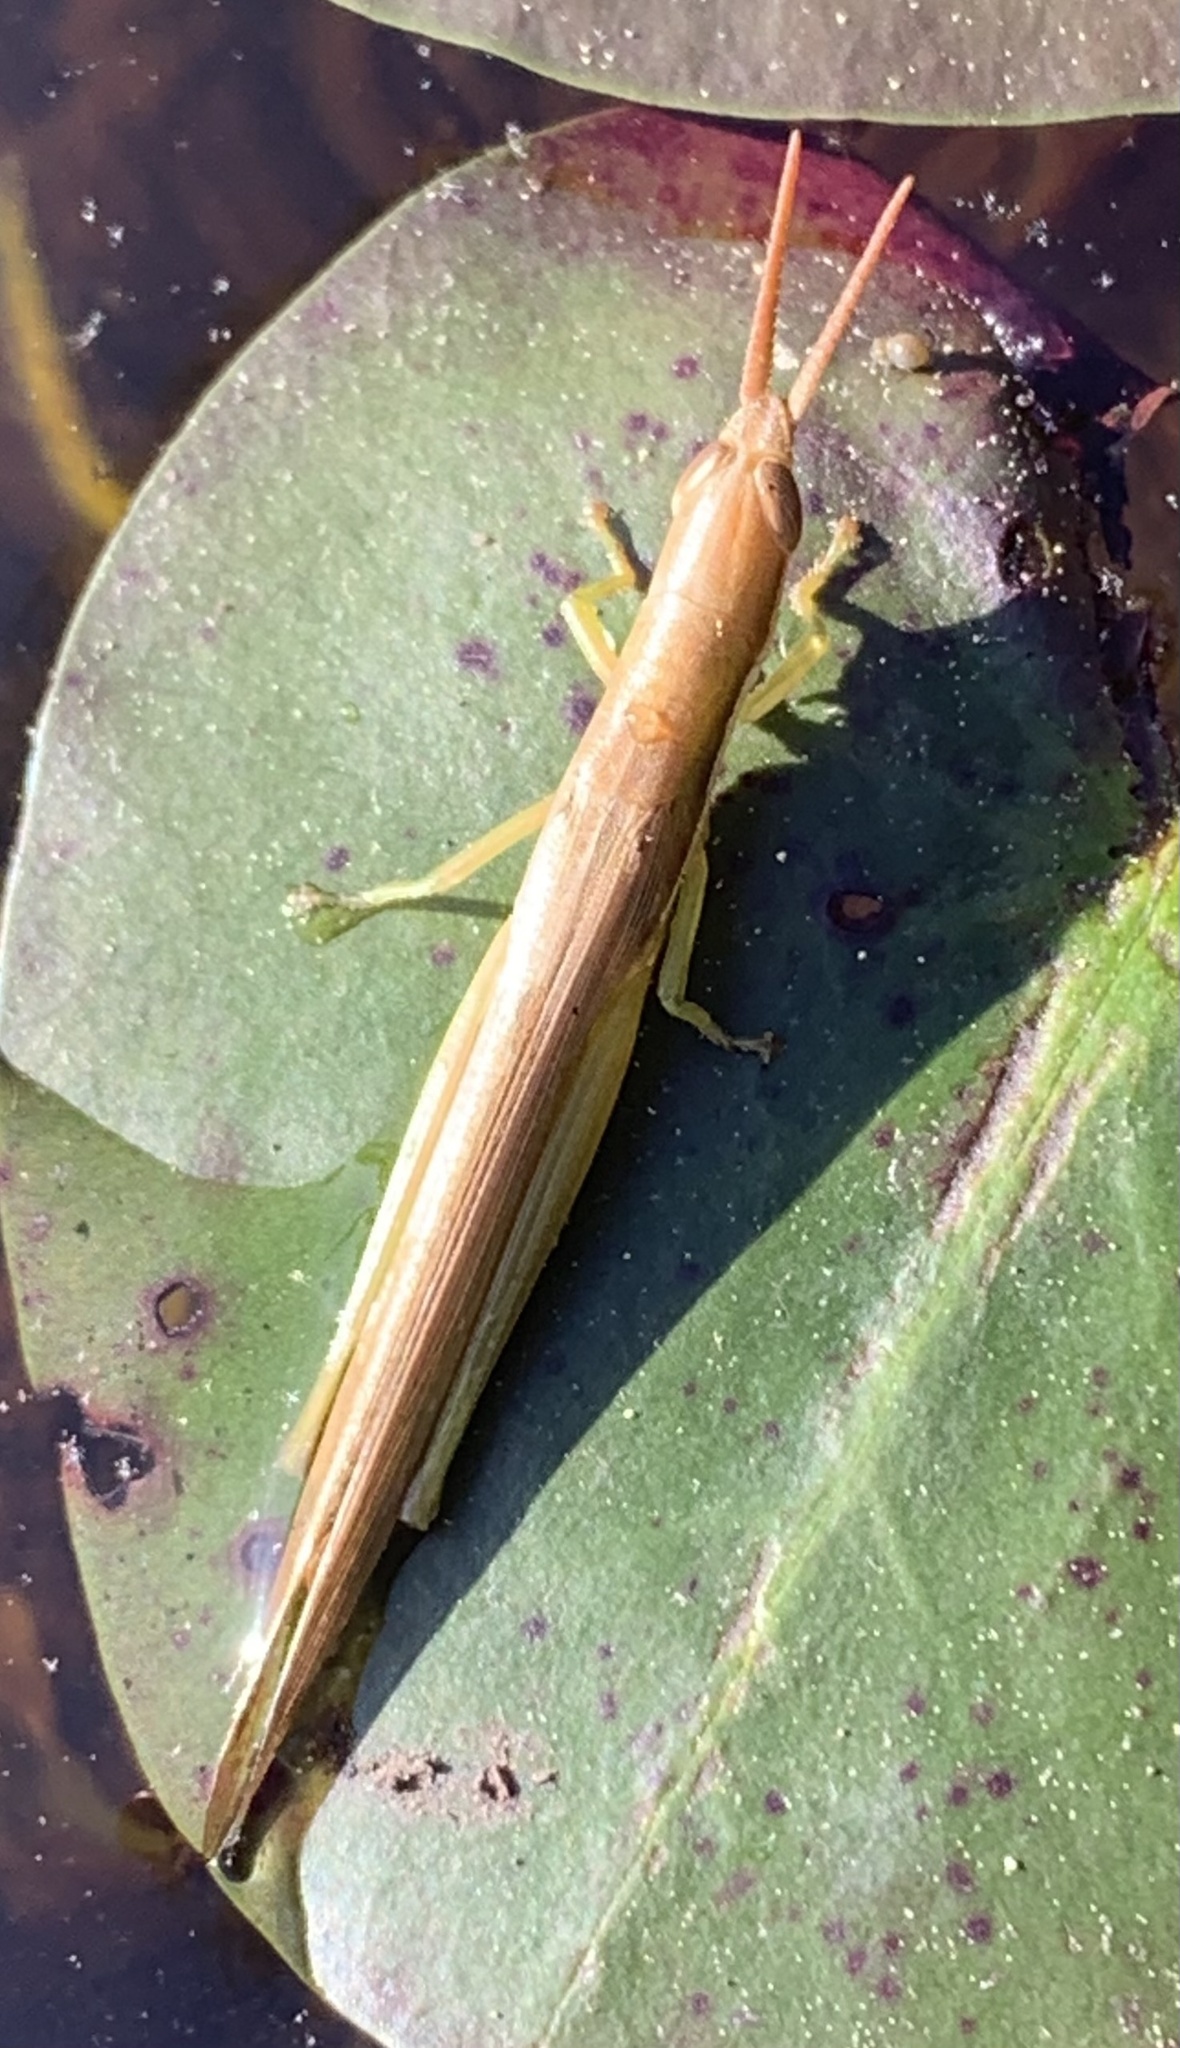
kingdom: Animalia
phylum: Arthropoda
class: Insecta
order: Orthoptera
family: Acrididae
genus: Leptysma
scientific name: Leptysma marginicollis
